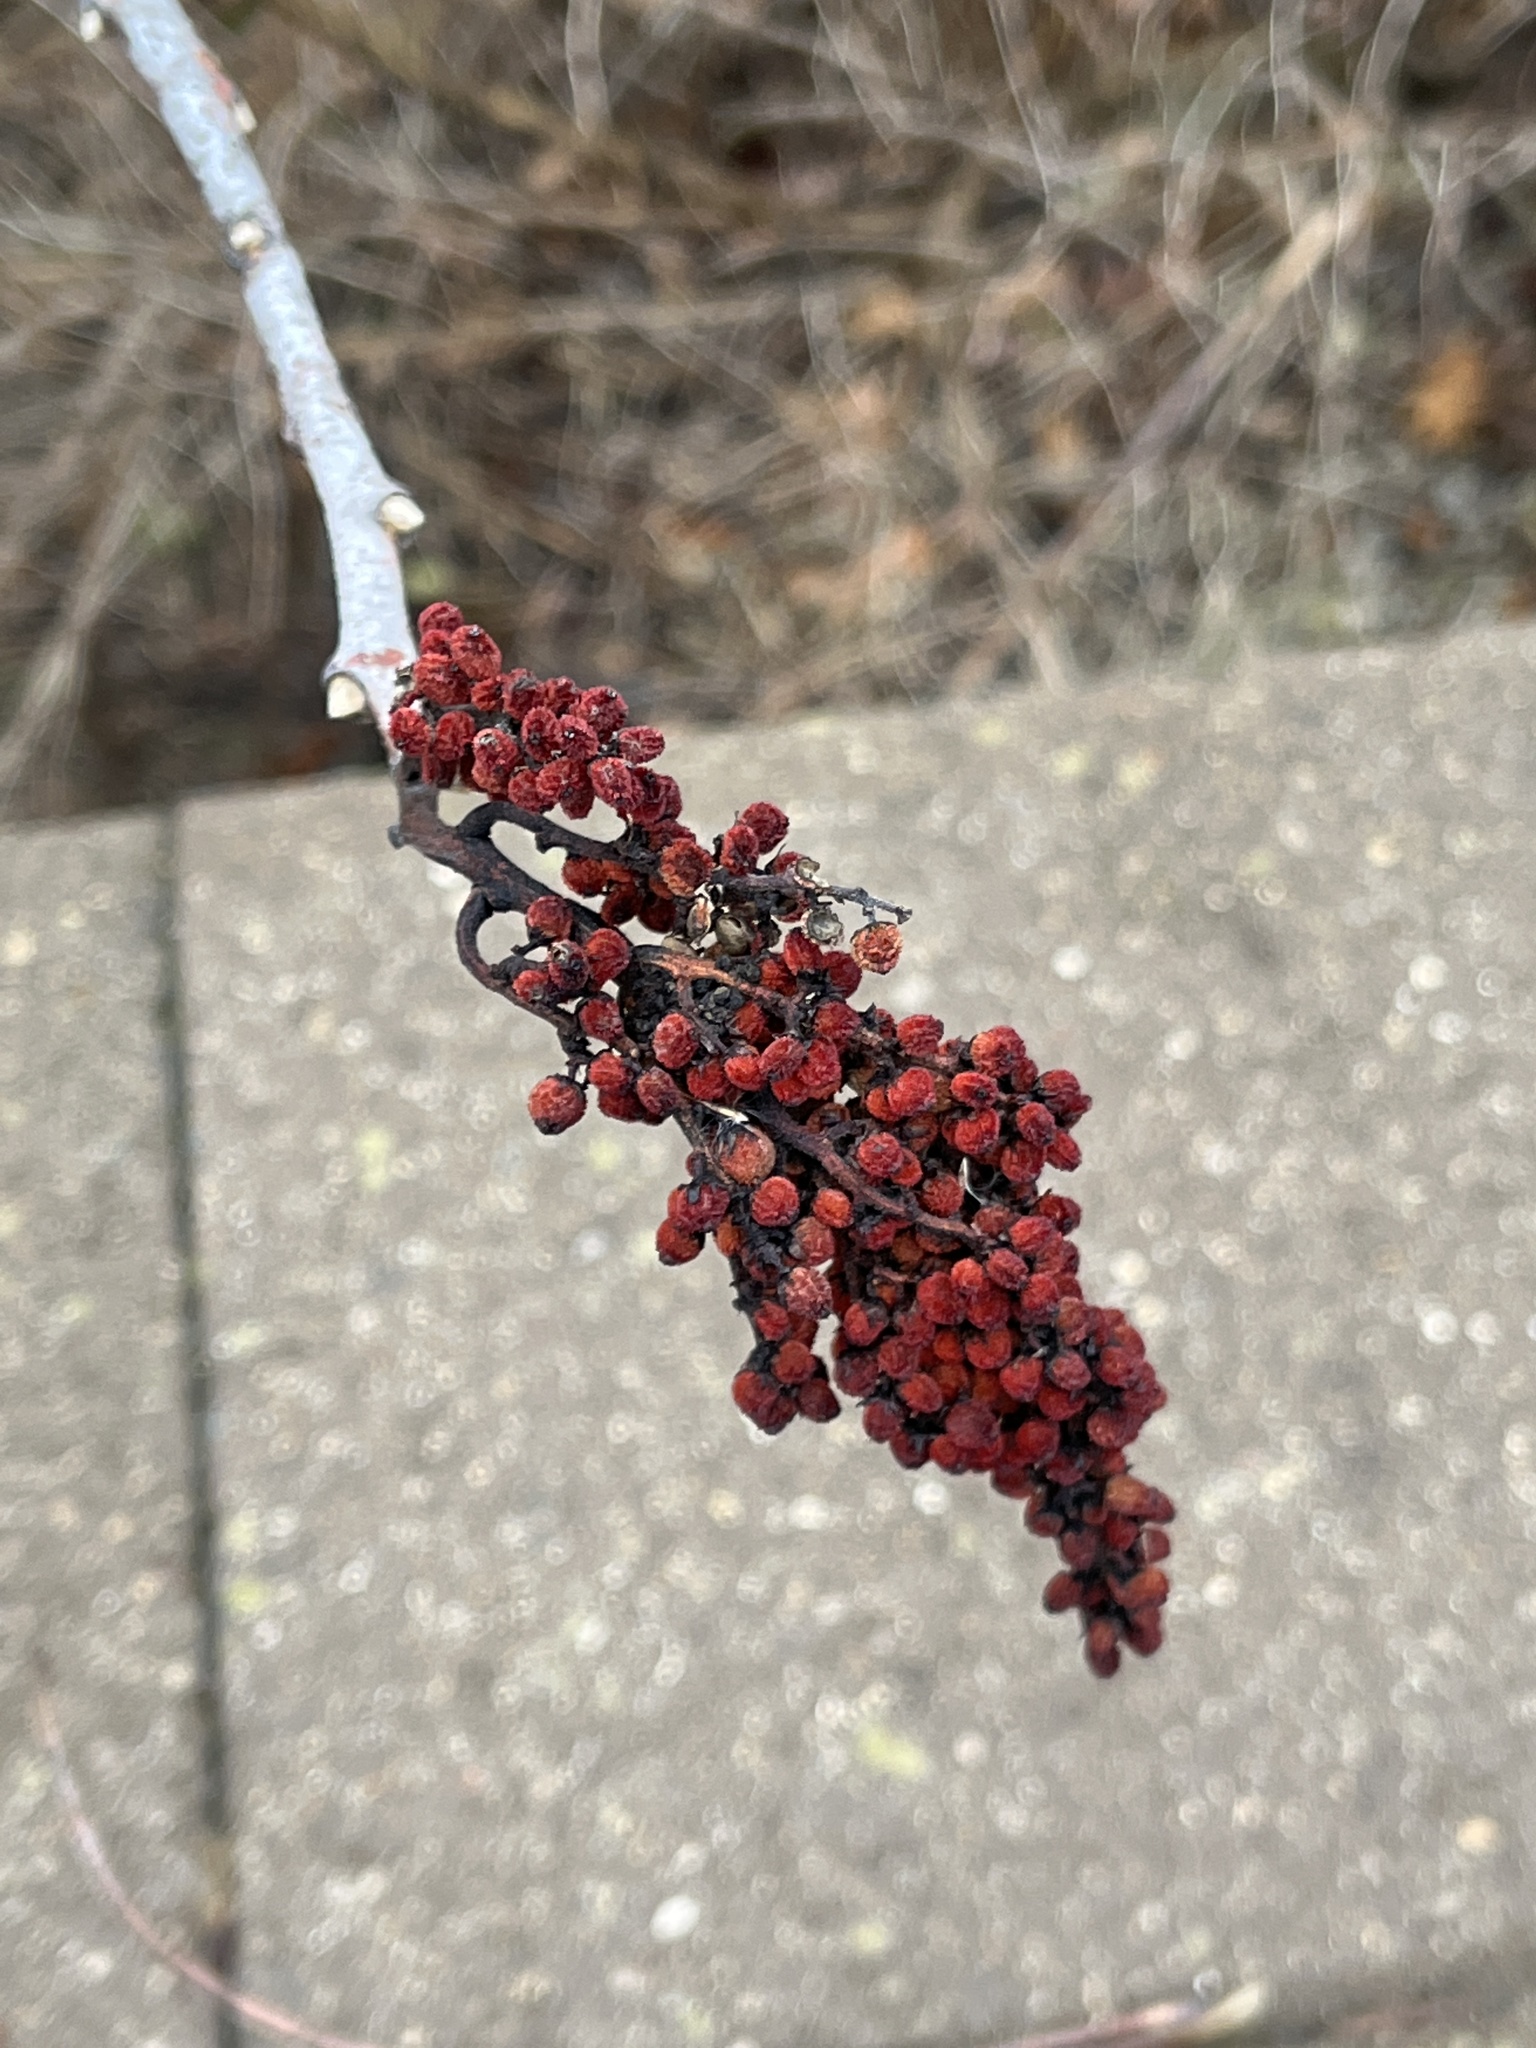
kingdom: Plantae
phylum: Tracheophyta
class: Magnoliopsida
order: Sapindales
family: Anacardiaceae
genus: Rhus
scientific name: Rhus glabra
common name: Scarlet sumac
